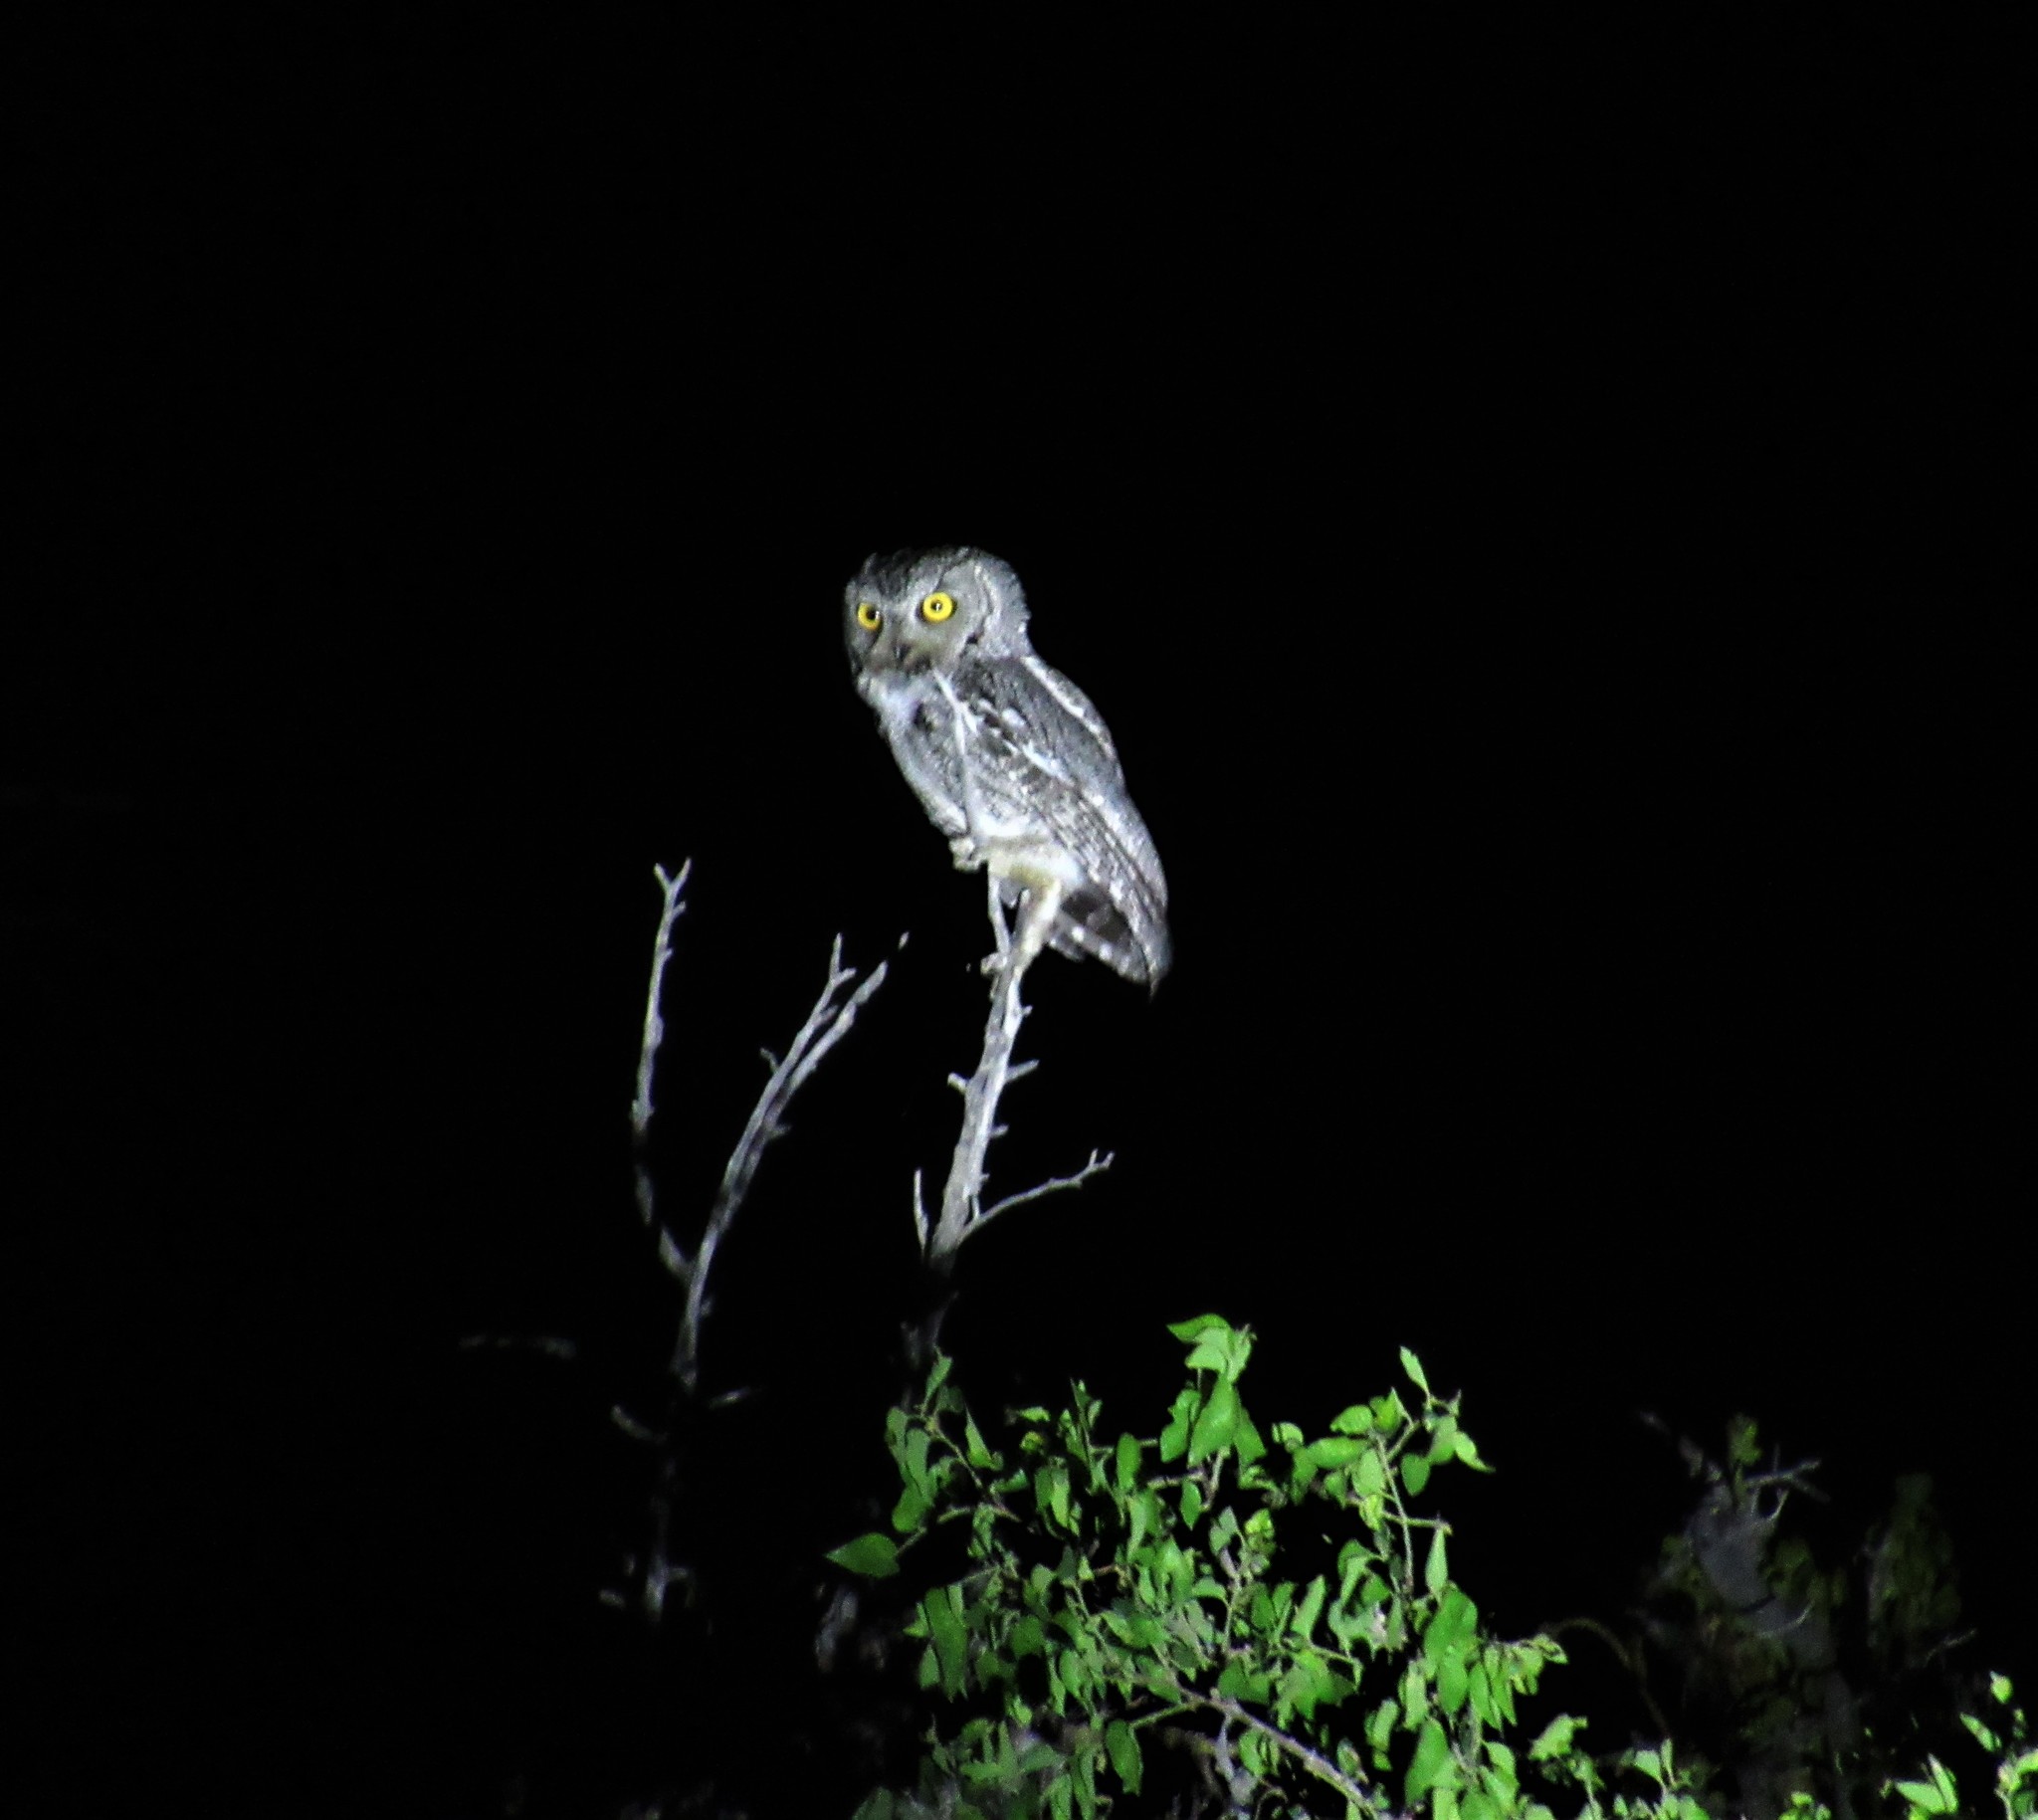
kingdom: Animalia
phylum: Chordata
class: Aves
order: Strigiformes
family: Strigidae
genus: Megascops
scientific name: Megascops kennicottii
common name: Western screech-owl
